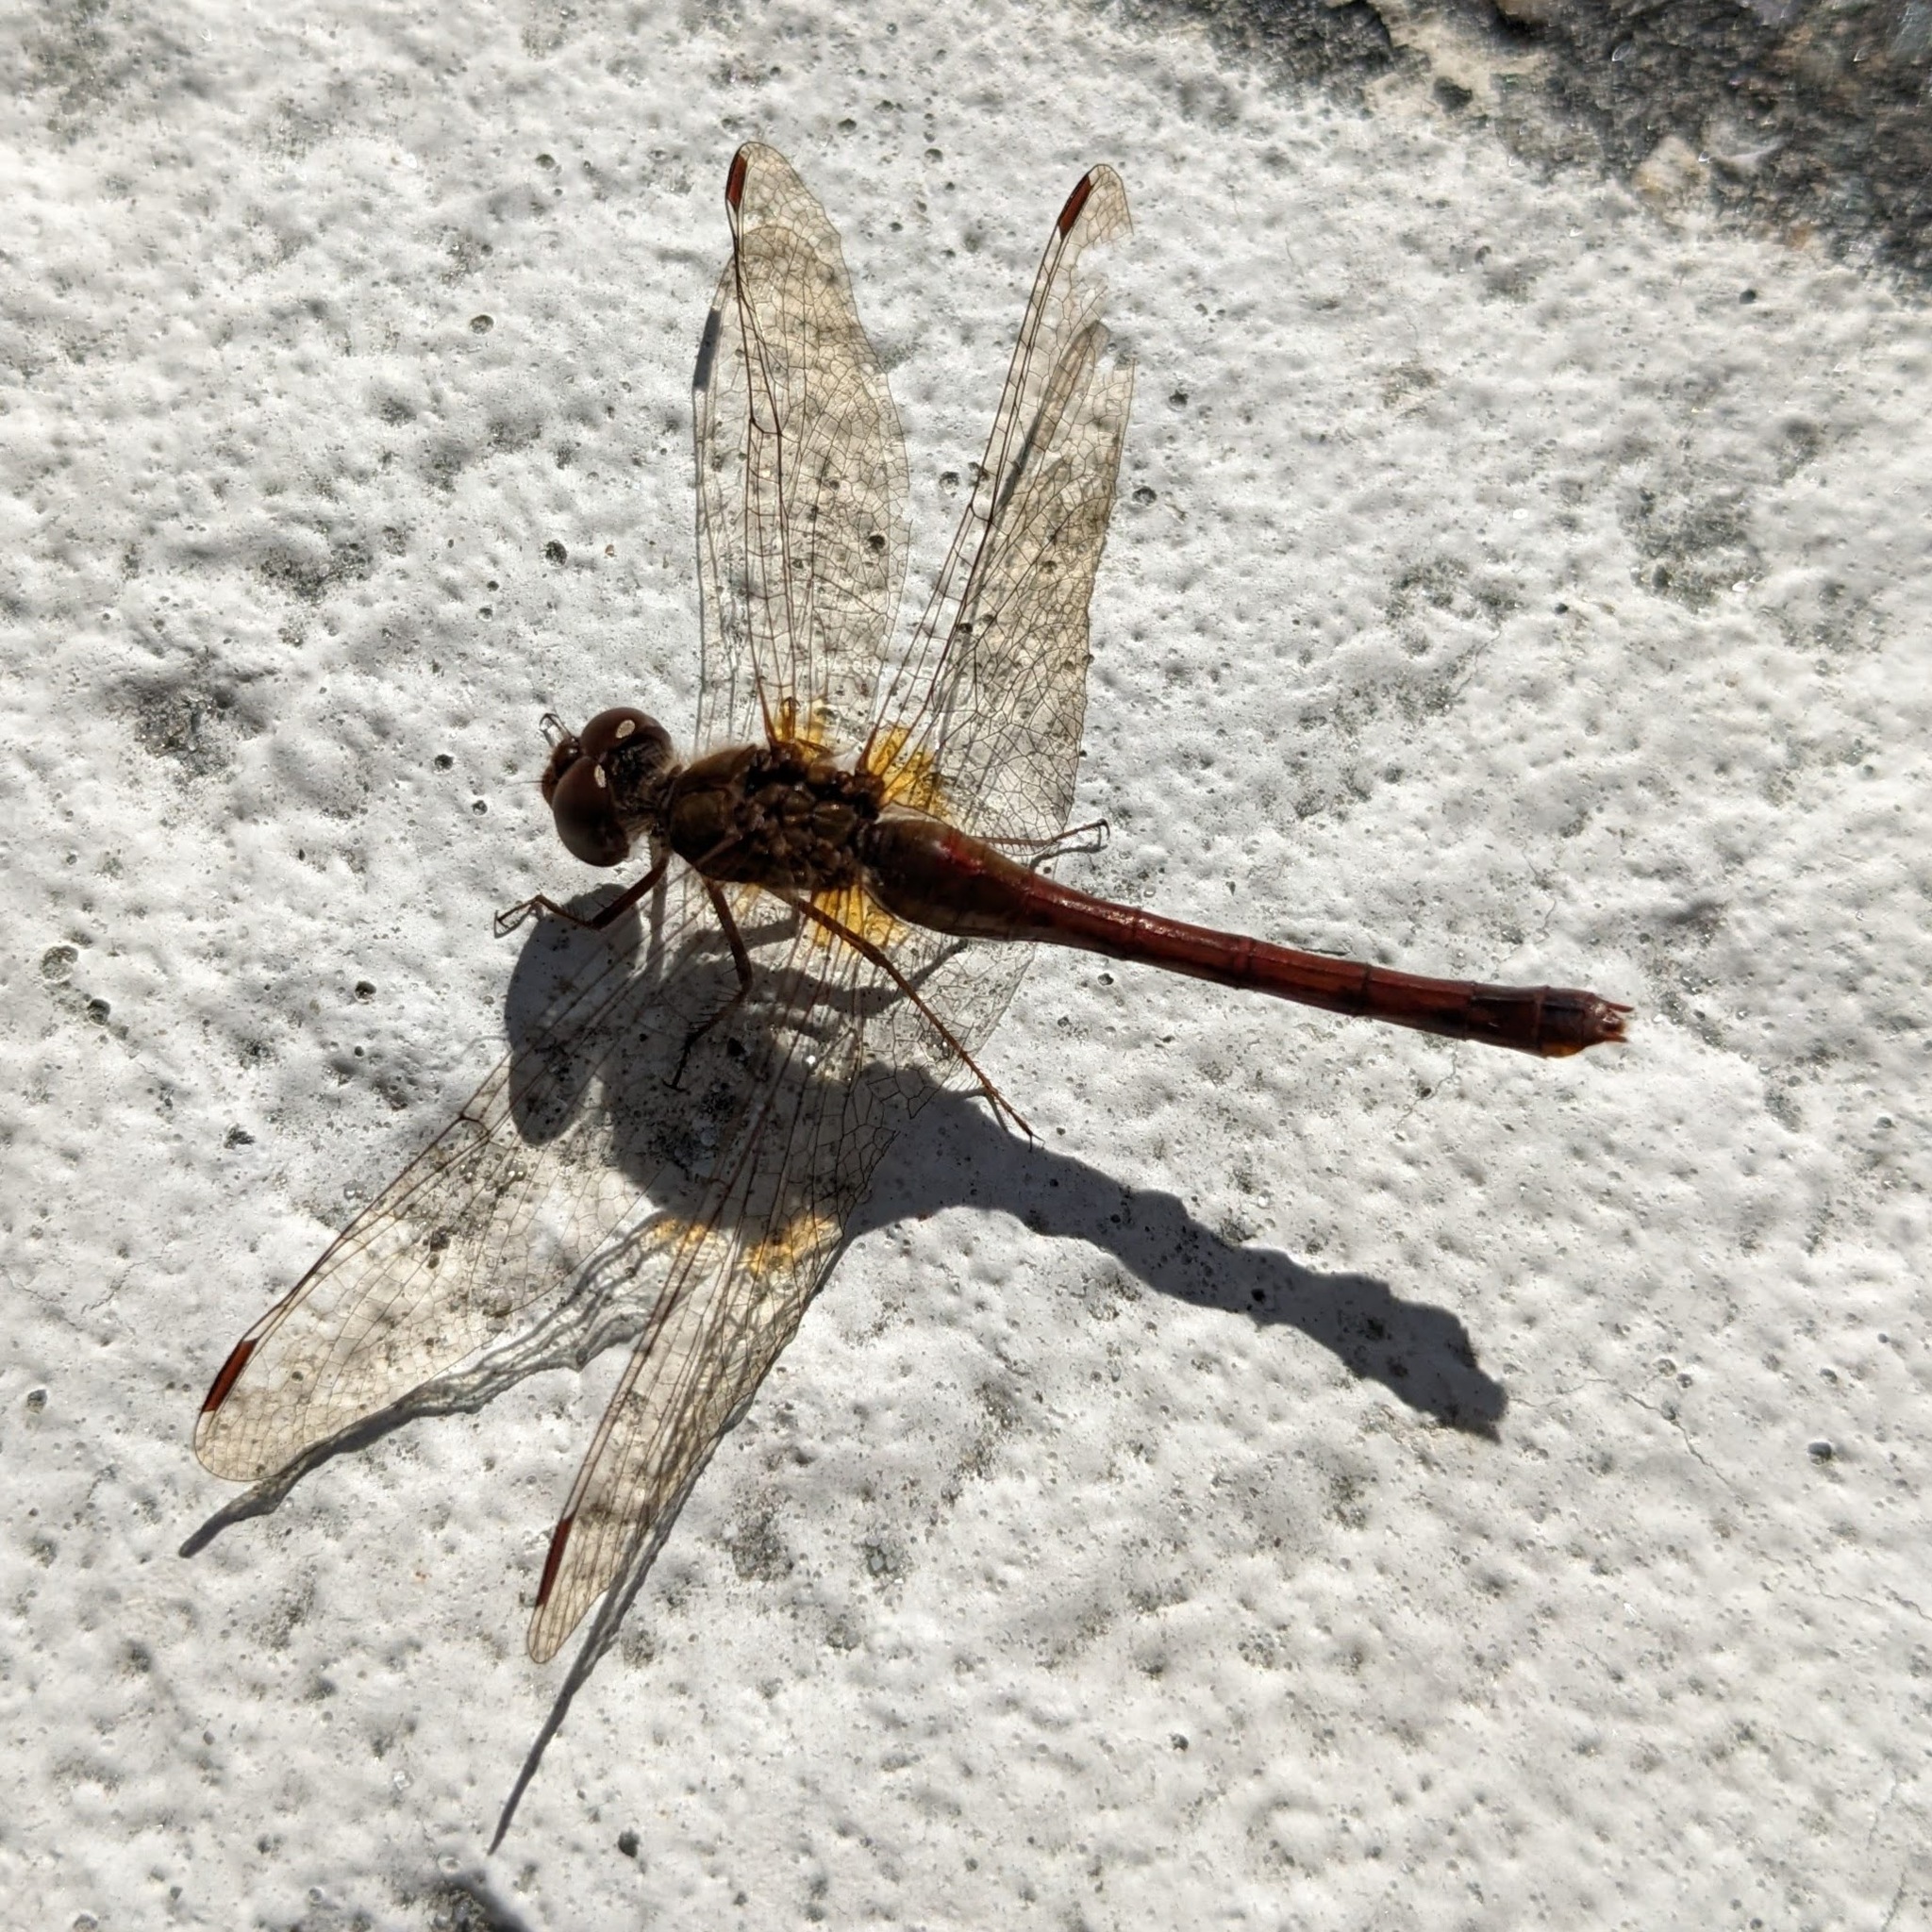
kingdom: Animalia
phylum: Arthropoda
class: Insecta
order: Odonata
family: Libellulidae
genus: Sympetrum
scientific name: Sympetrum vicinum
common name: Autumn meadowhawk
